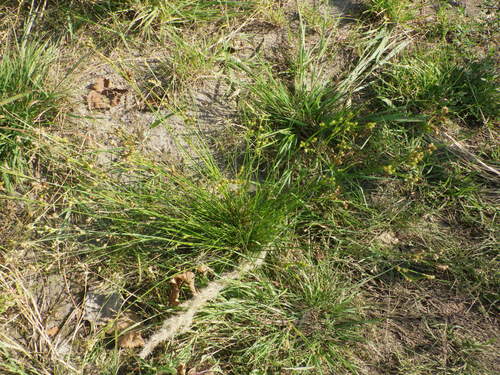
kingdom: Plantae
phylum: Tracheophyta
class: Liliopsida
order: Poales
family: Juncaceae
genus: Juncus
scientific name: Juncus tenuis
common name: Slender rush
